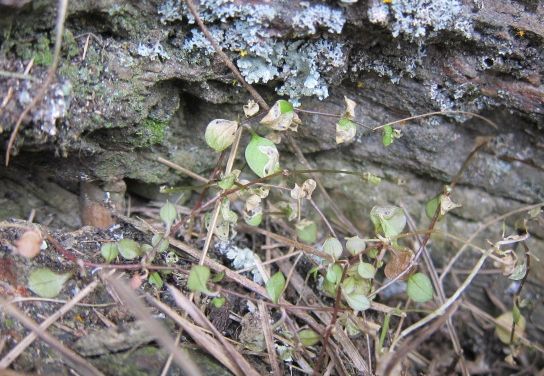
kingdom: Plantae
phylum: Tracheophyta
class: Magnoliopsida
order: Caryophyllales
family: Caryophyllaceae
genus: Stellaria
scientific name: Stellaria parviflora
